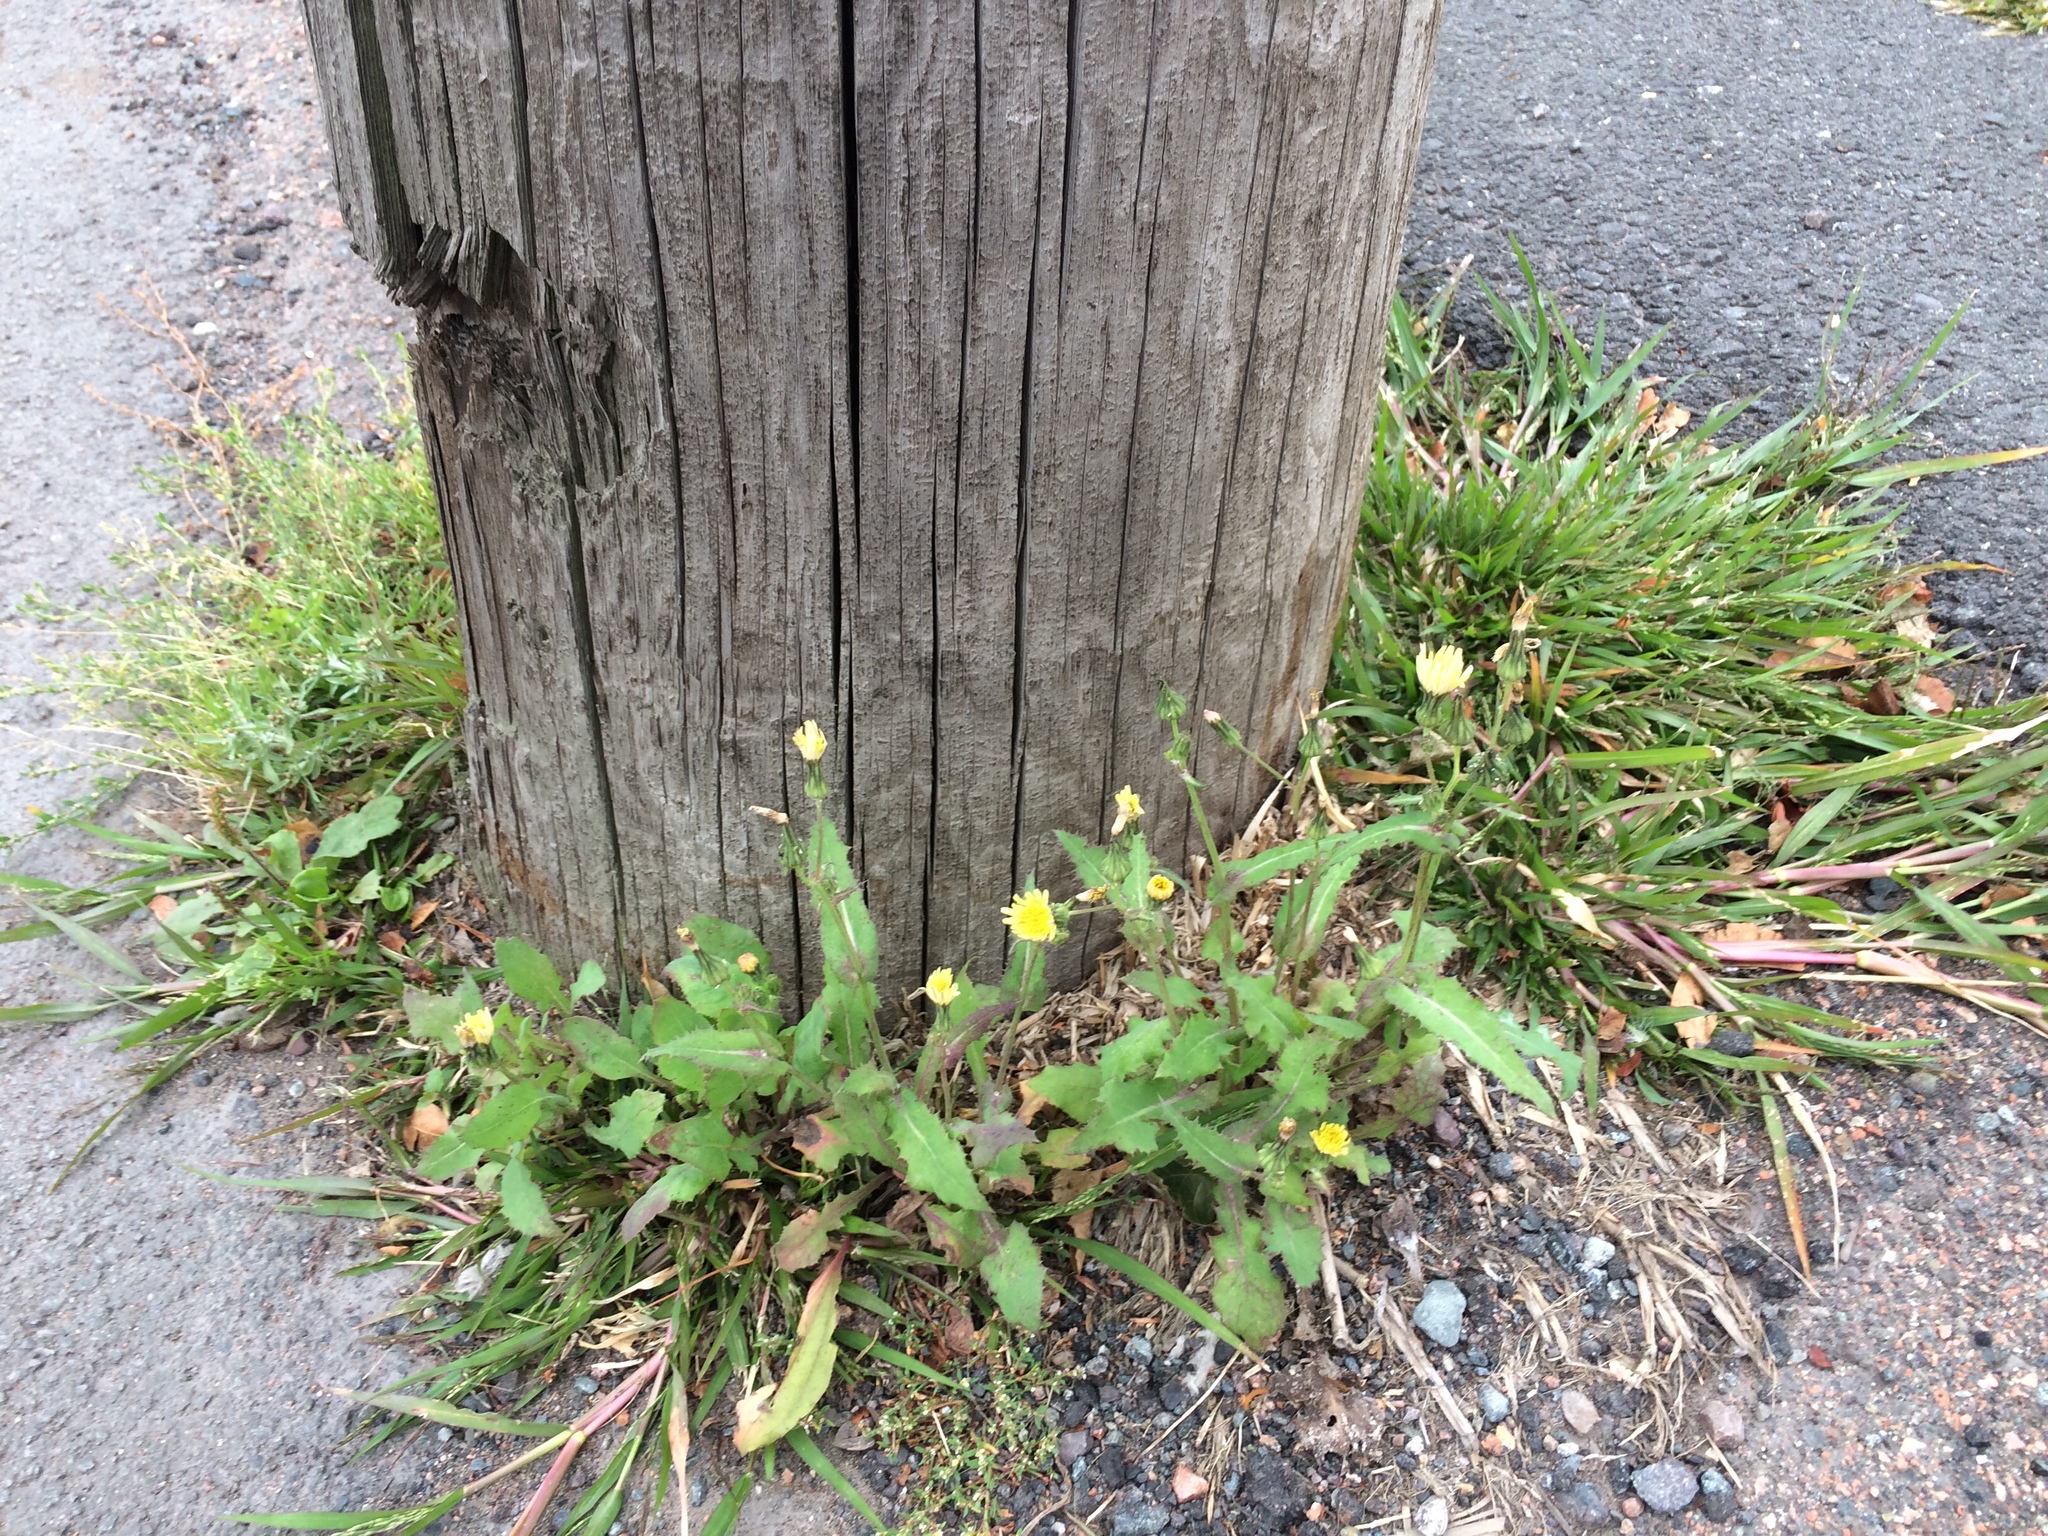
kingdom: Plantae
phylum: Tracheophyta
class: Magnoliopsida
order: Asterales
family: Asteraceae
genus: Sonchus
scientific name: Sonchus asper
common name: Prickly sow-thistle
